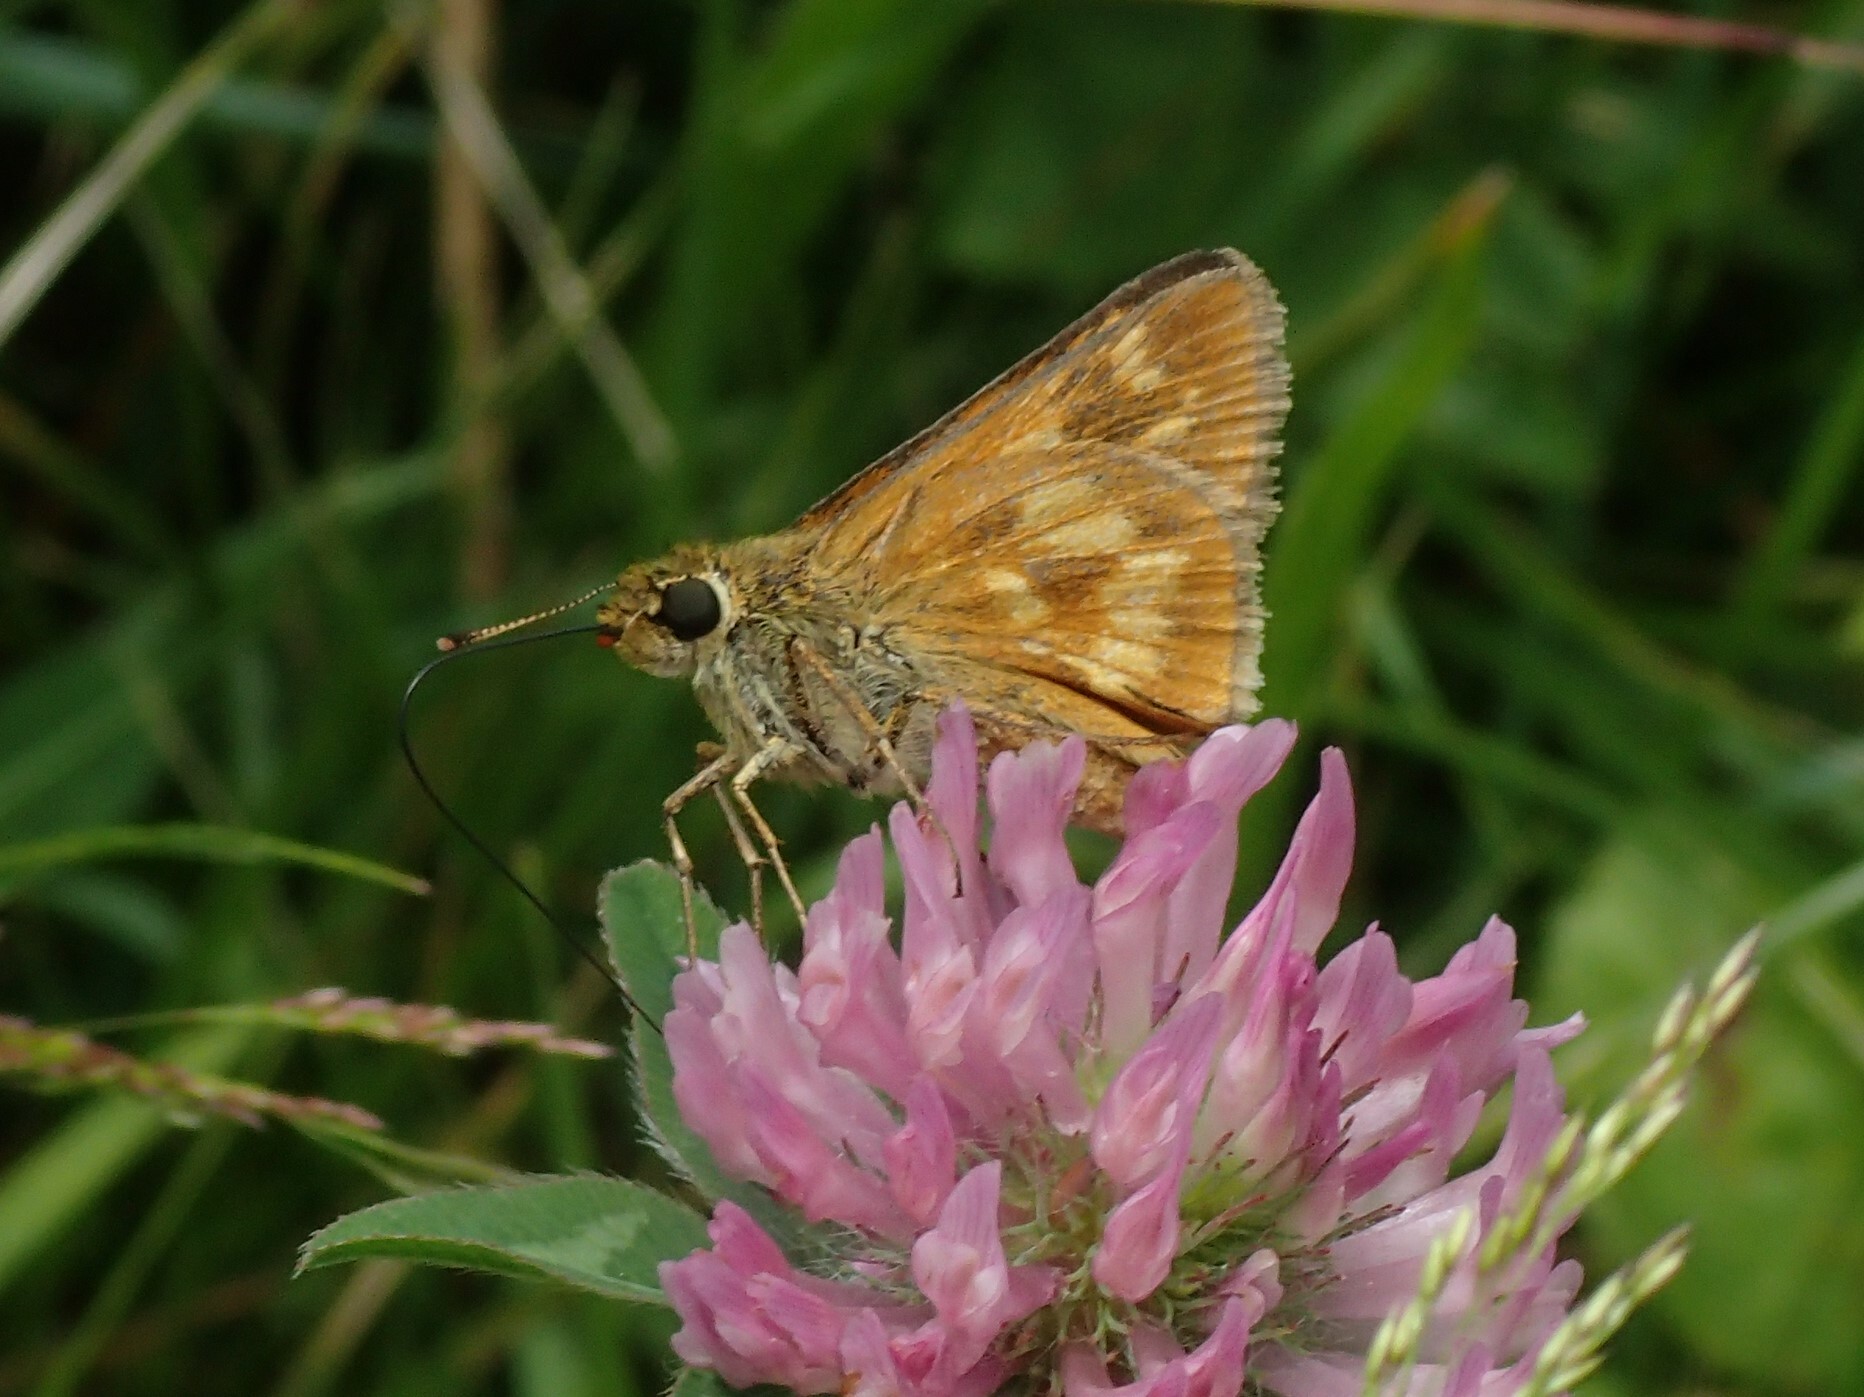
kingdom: Animalia
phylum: Arthropoda
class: Insecta
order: Lepidoptera
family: Hesperiidae
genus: Polites
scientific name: Polites mystic
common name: Long dash
